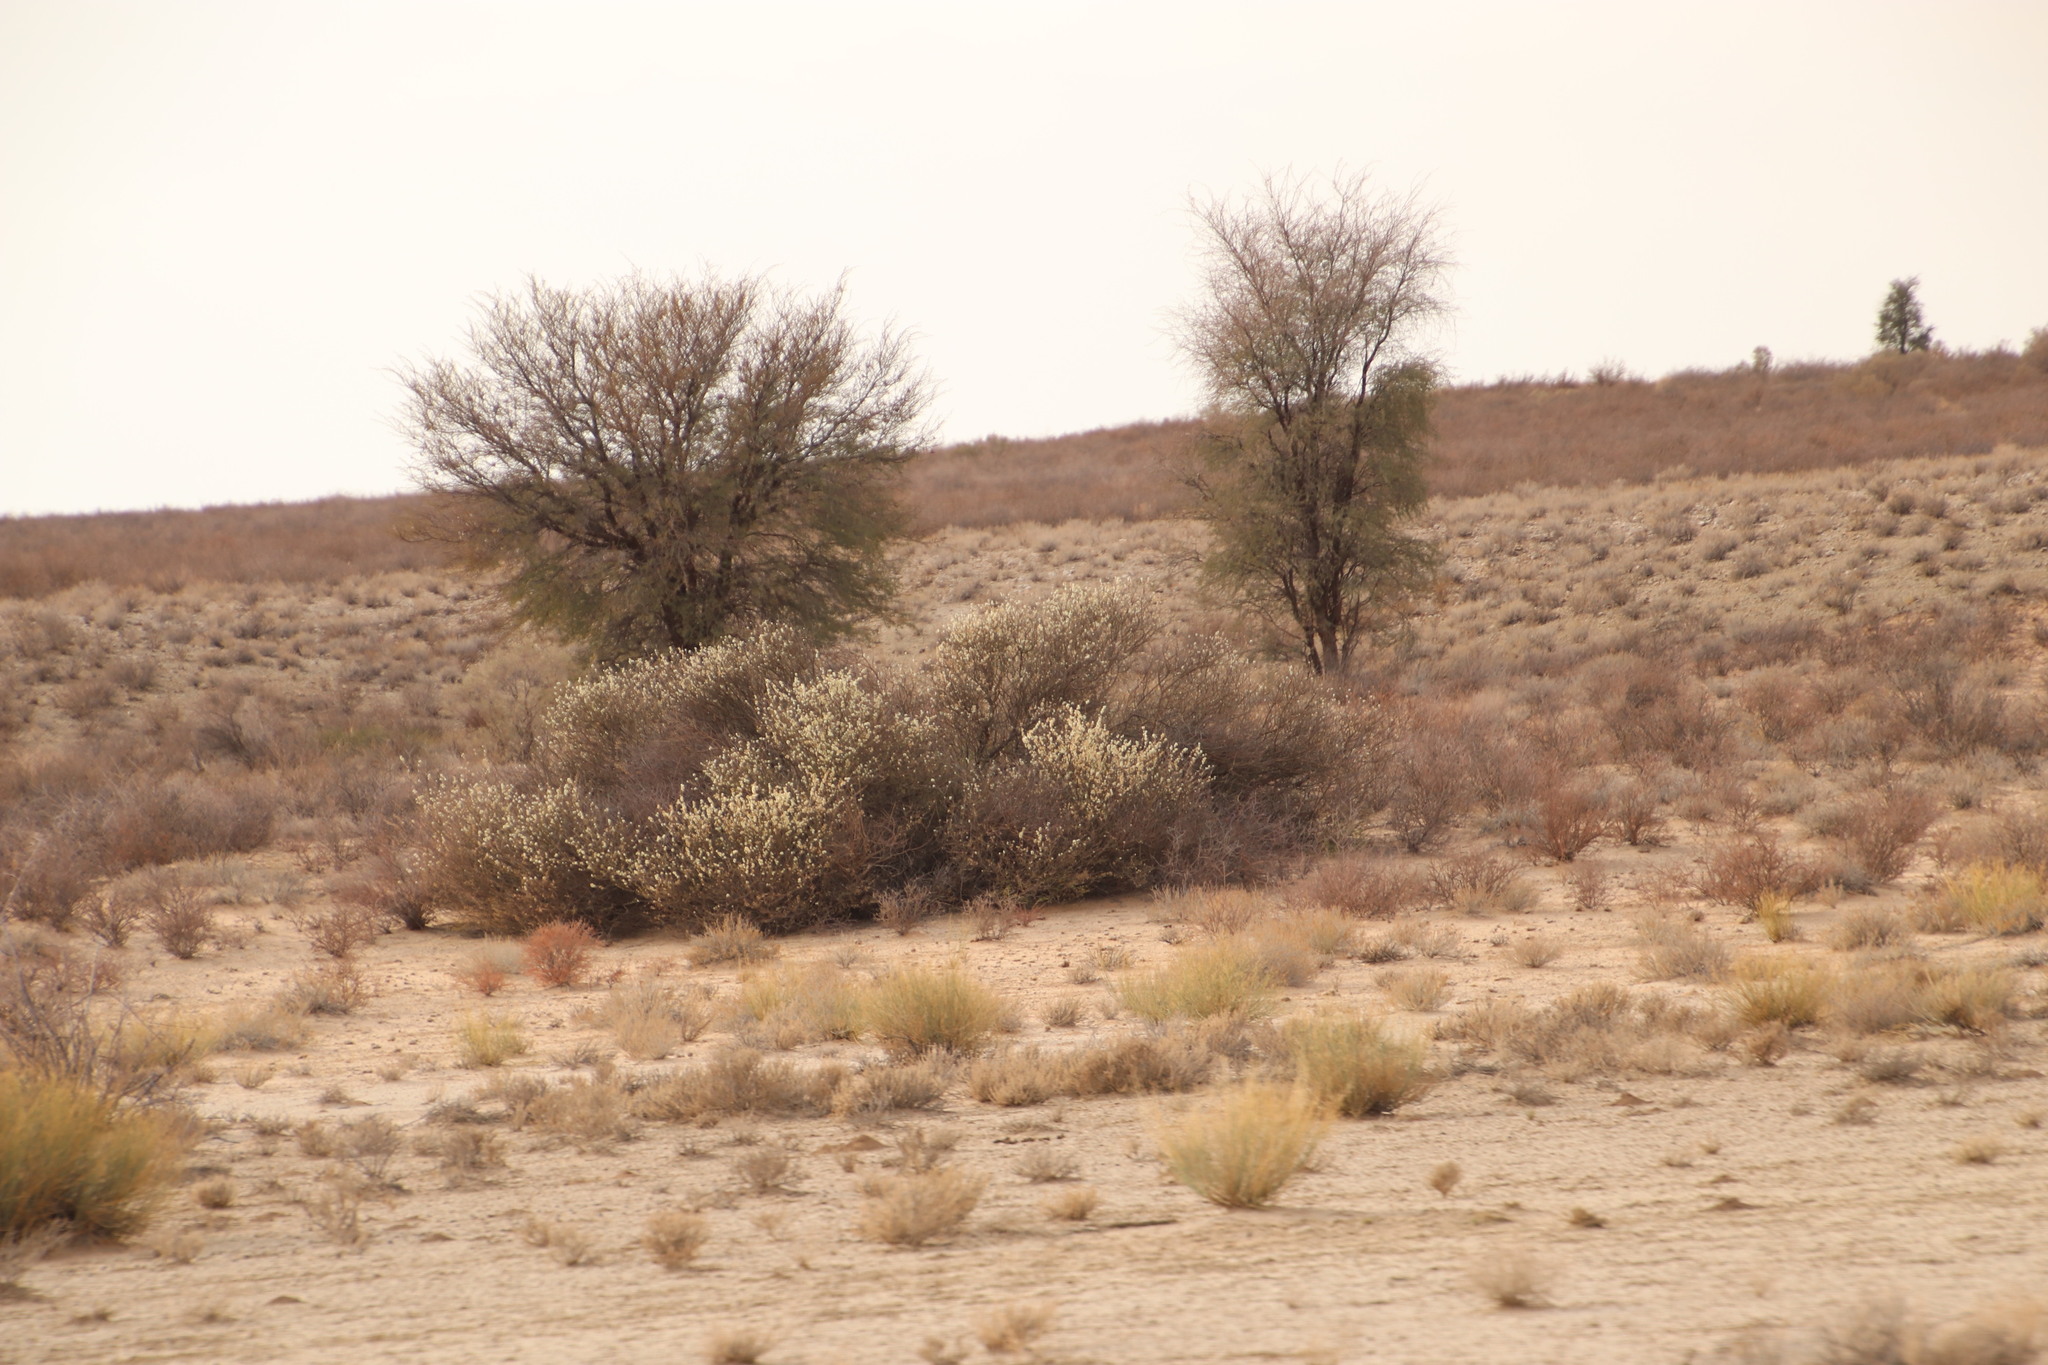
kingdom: Plantae
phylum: Tracheophyta
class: Magnoliopsida
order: Fabales
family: Fabaceae
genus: Senegalia
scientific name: Senegalia mellifera
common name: Hookthorn
